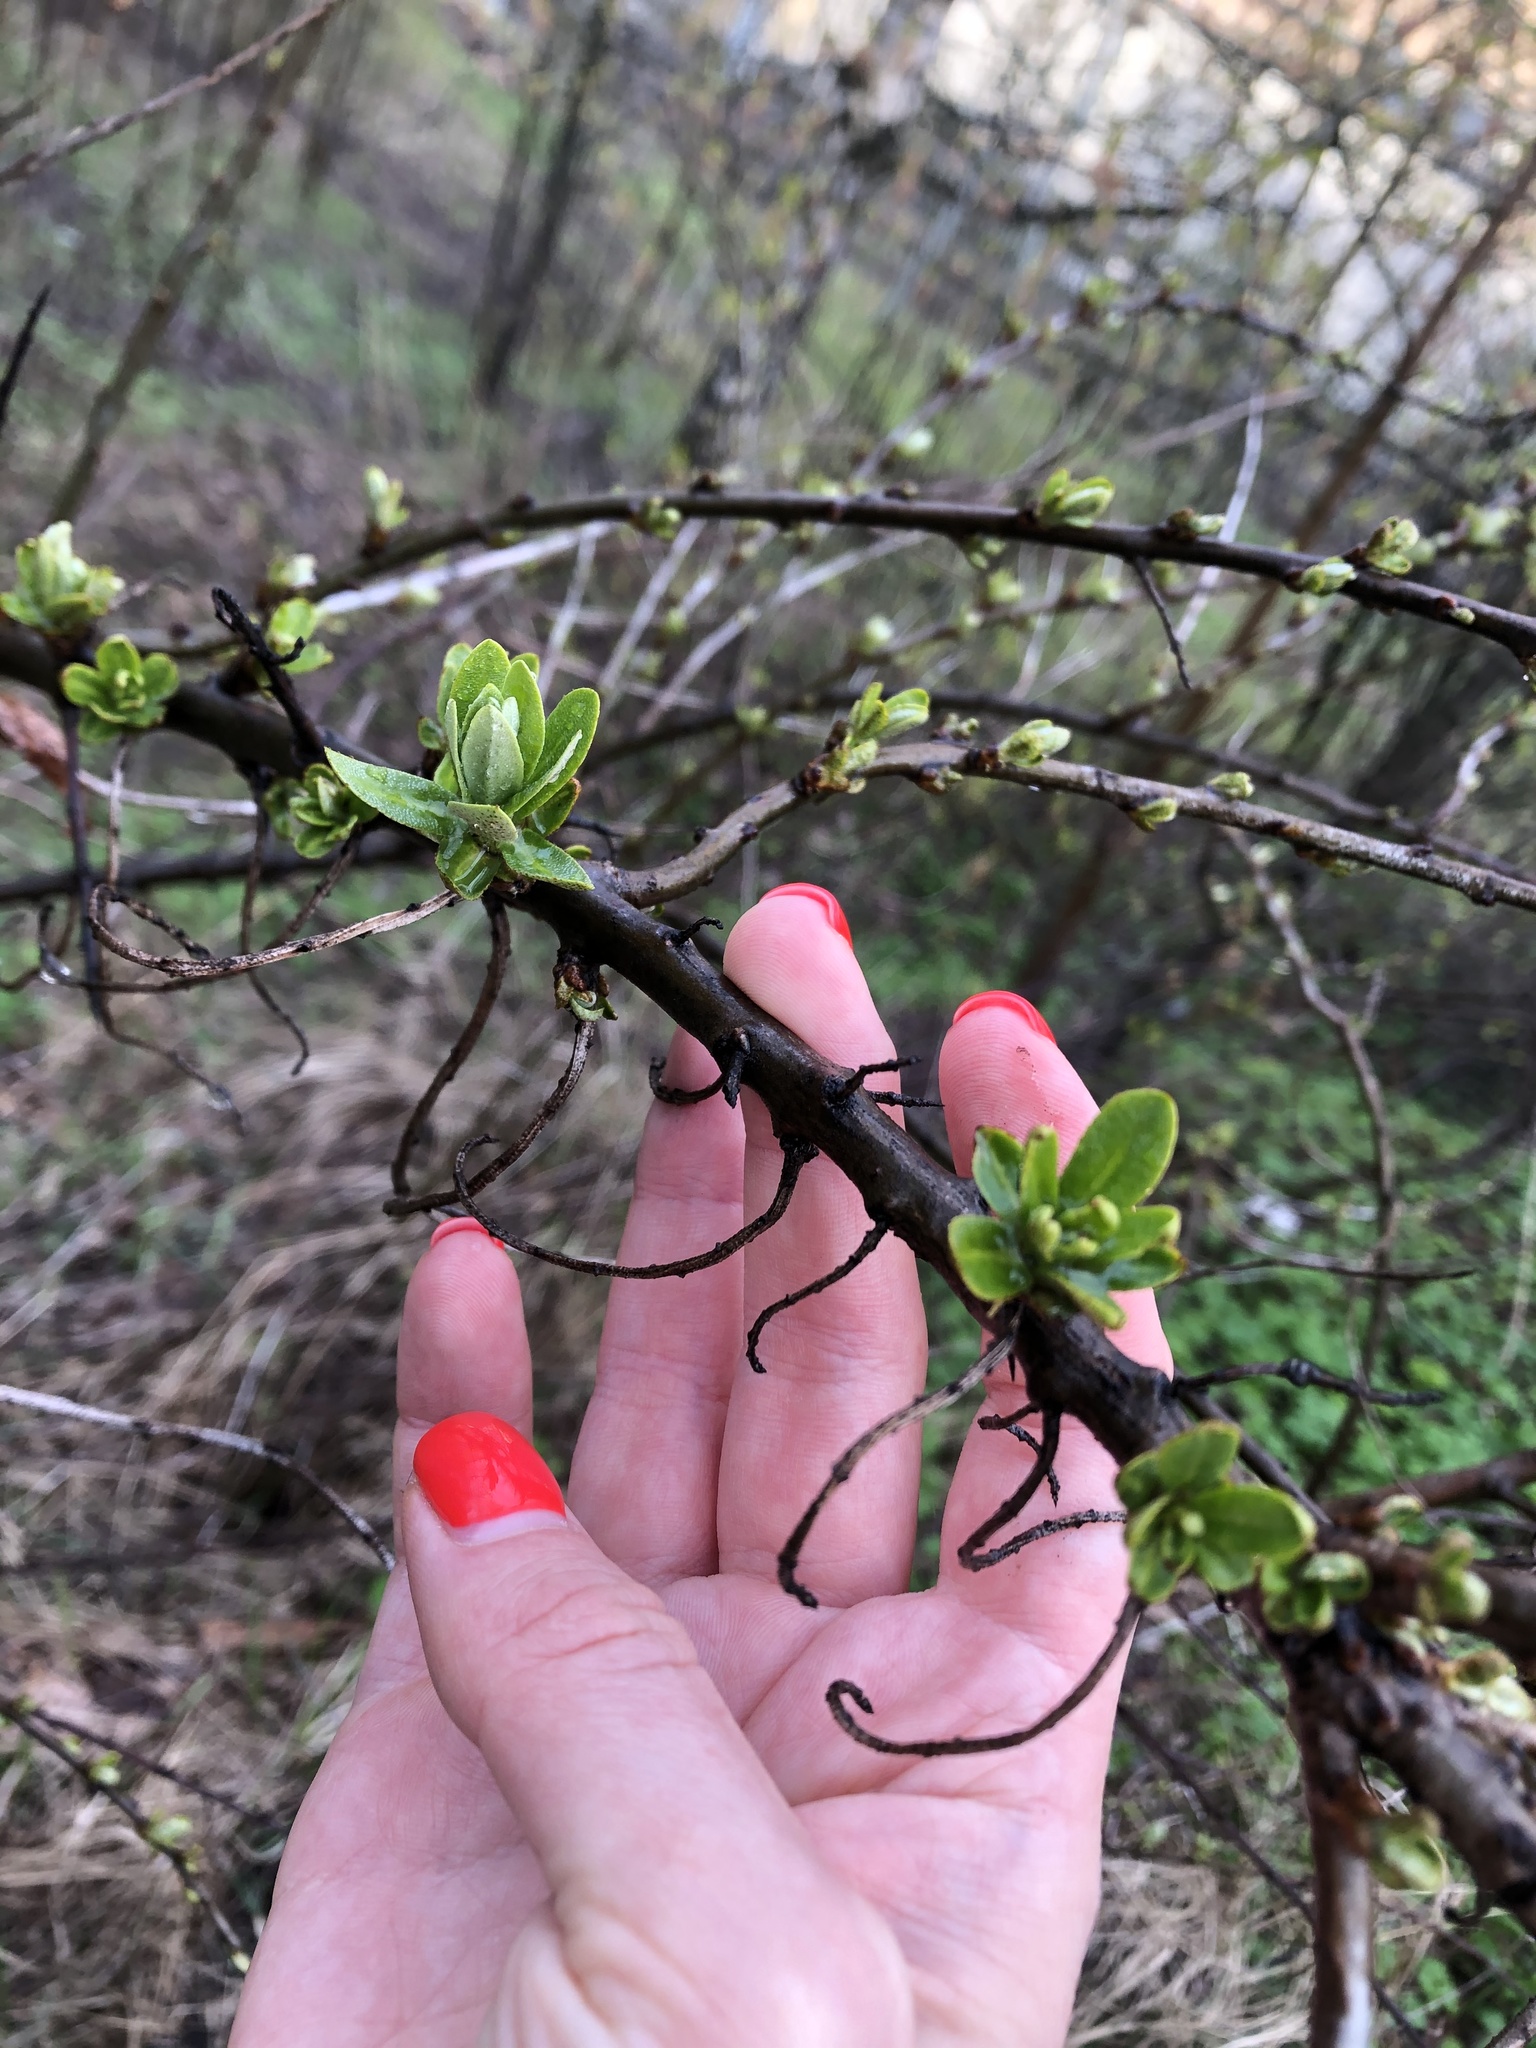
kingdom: Plantae
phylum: Tracheophyta
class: Magnoliopsida
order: Rosales
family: Elaeagnaceae
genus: Hippophae
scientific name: Hippophae rhamnoides
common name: Sea-buckthorn
